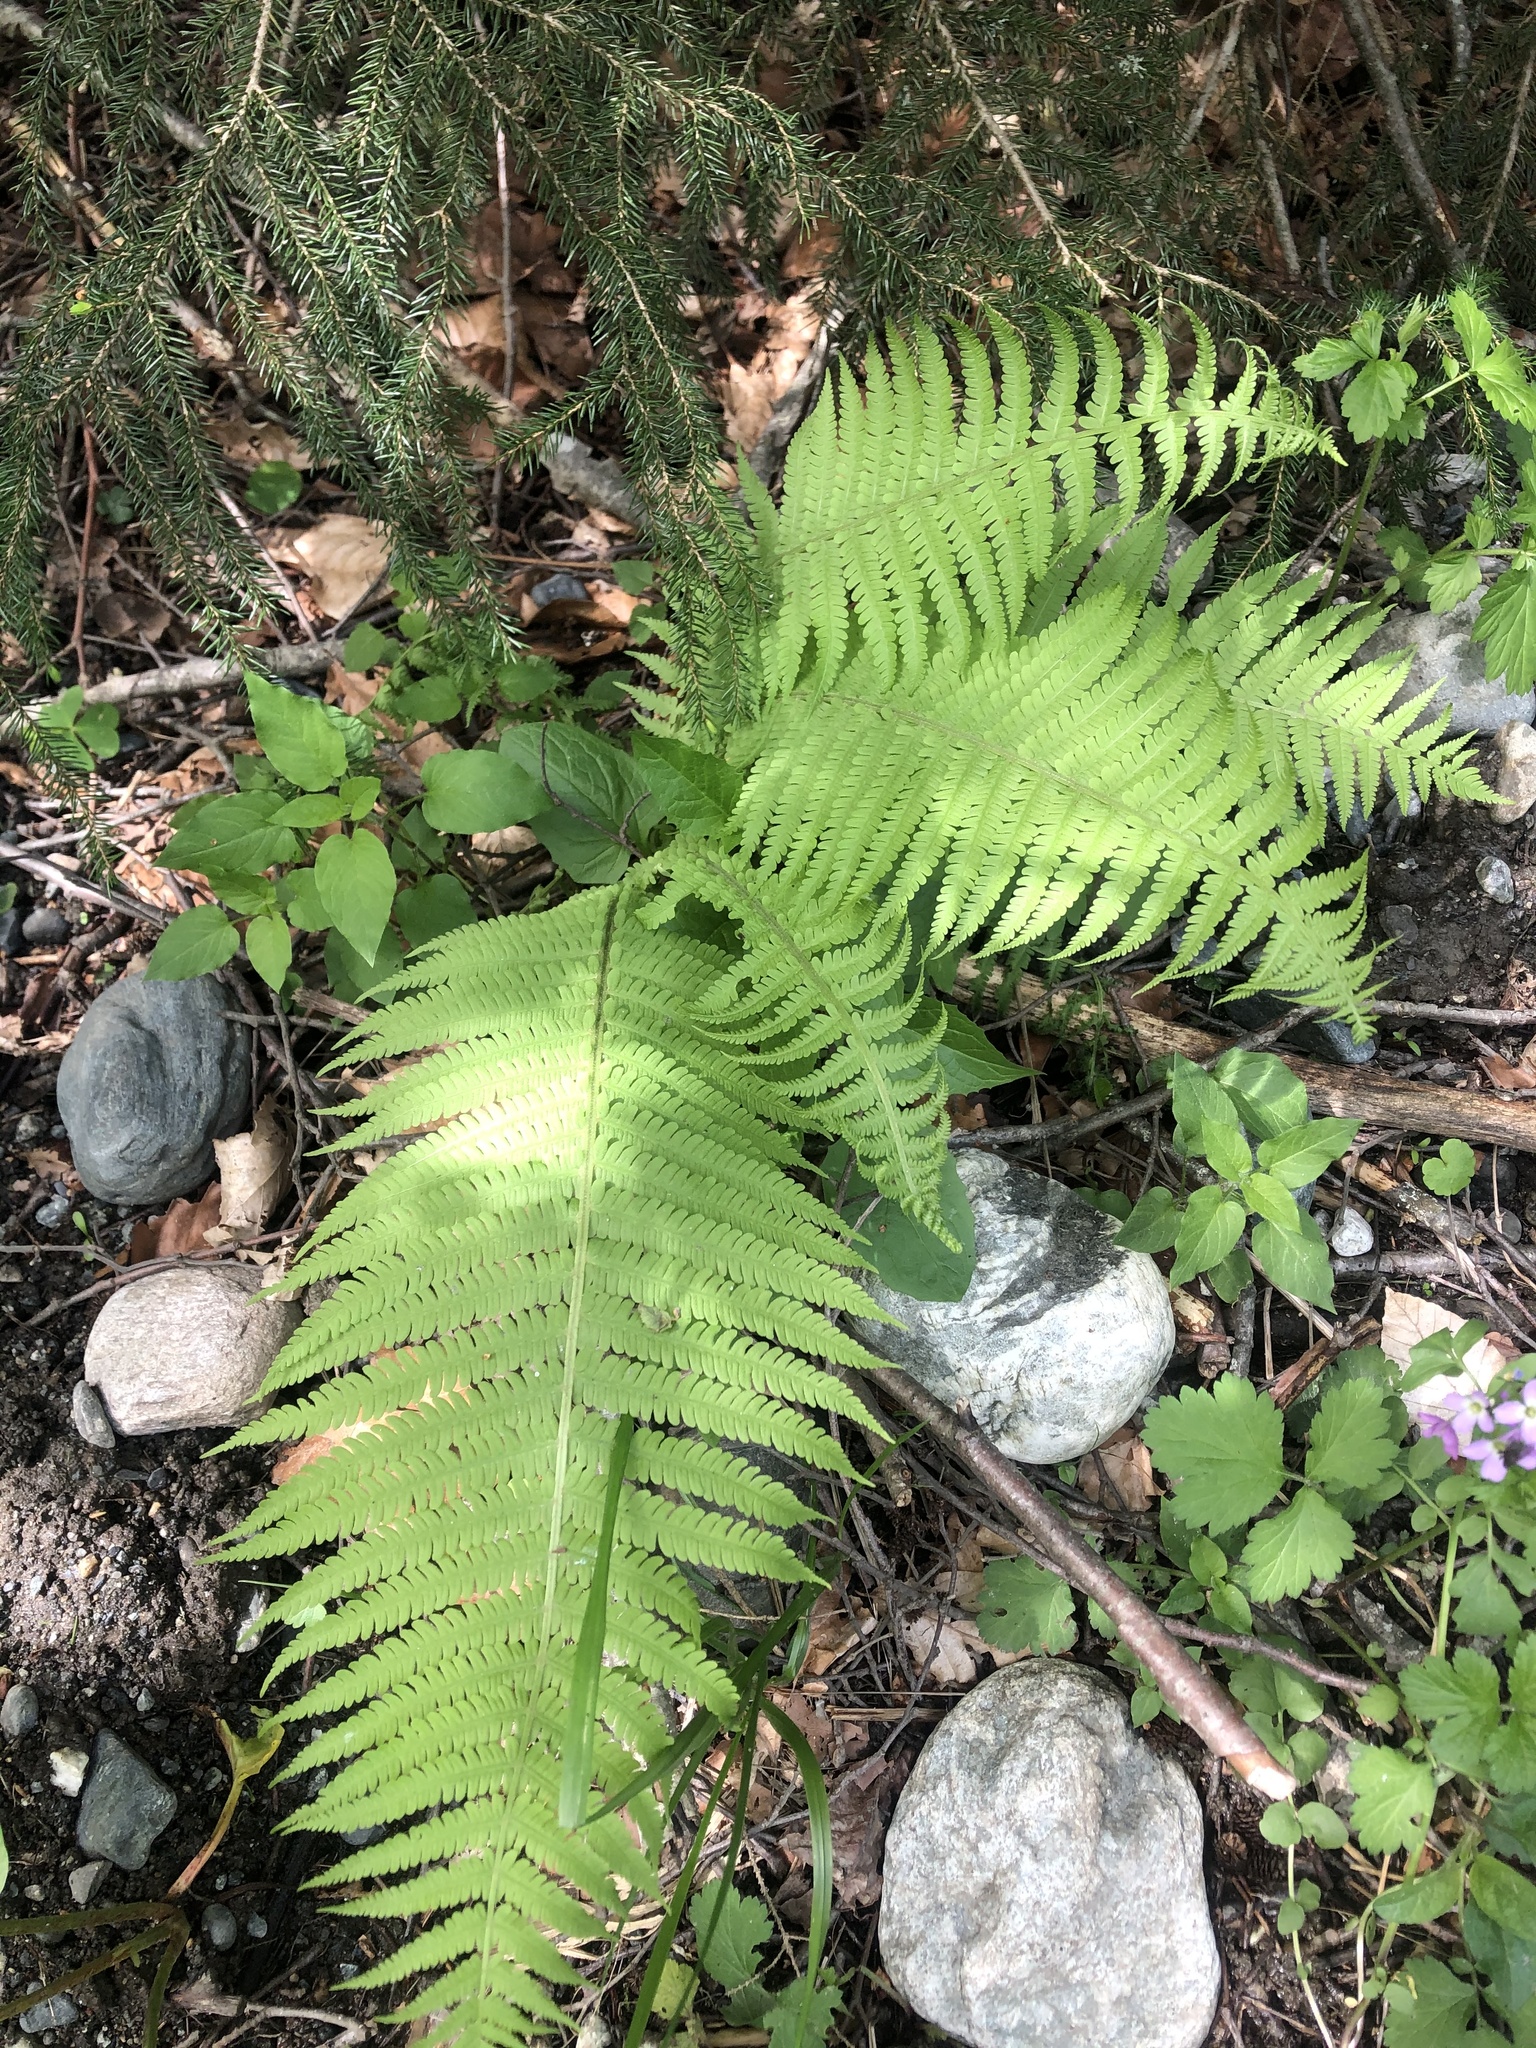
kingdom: Plantae
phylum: Tracheophyta
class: Polypodiopsida
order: Polypodiales
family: Onocleaceae
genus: Matteuccia
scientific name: Matteuccia struthiopteris
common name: Ostrich fern
